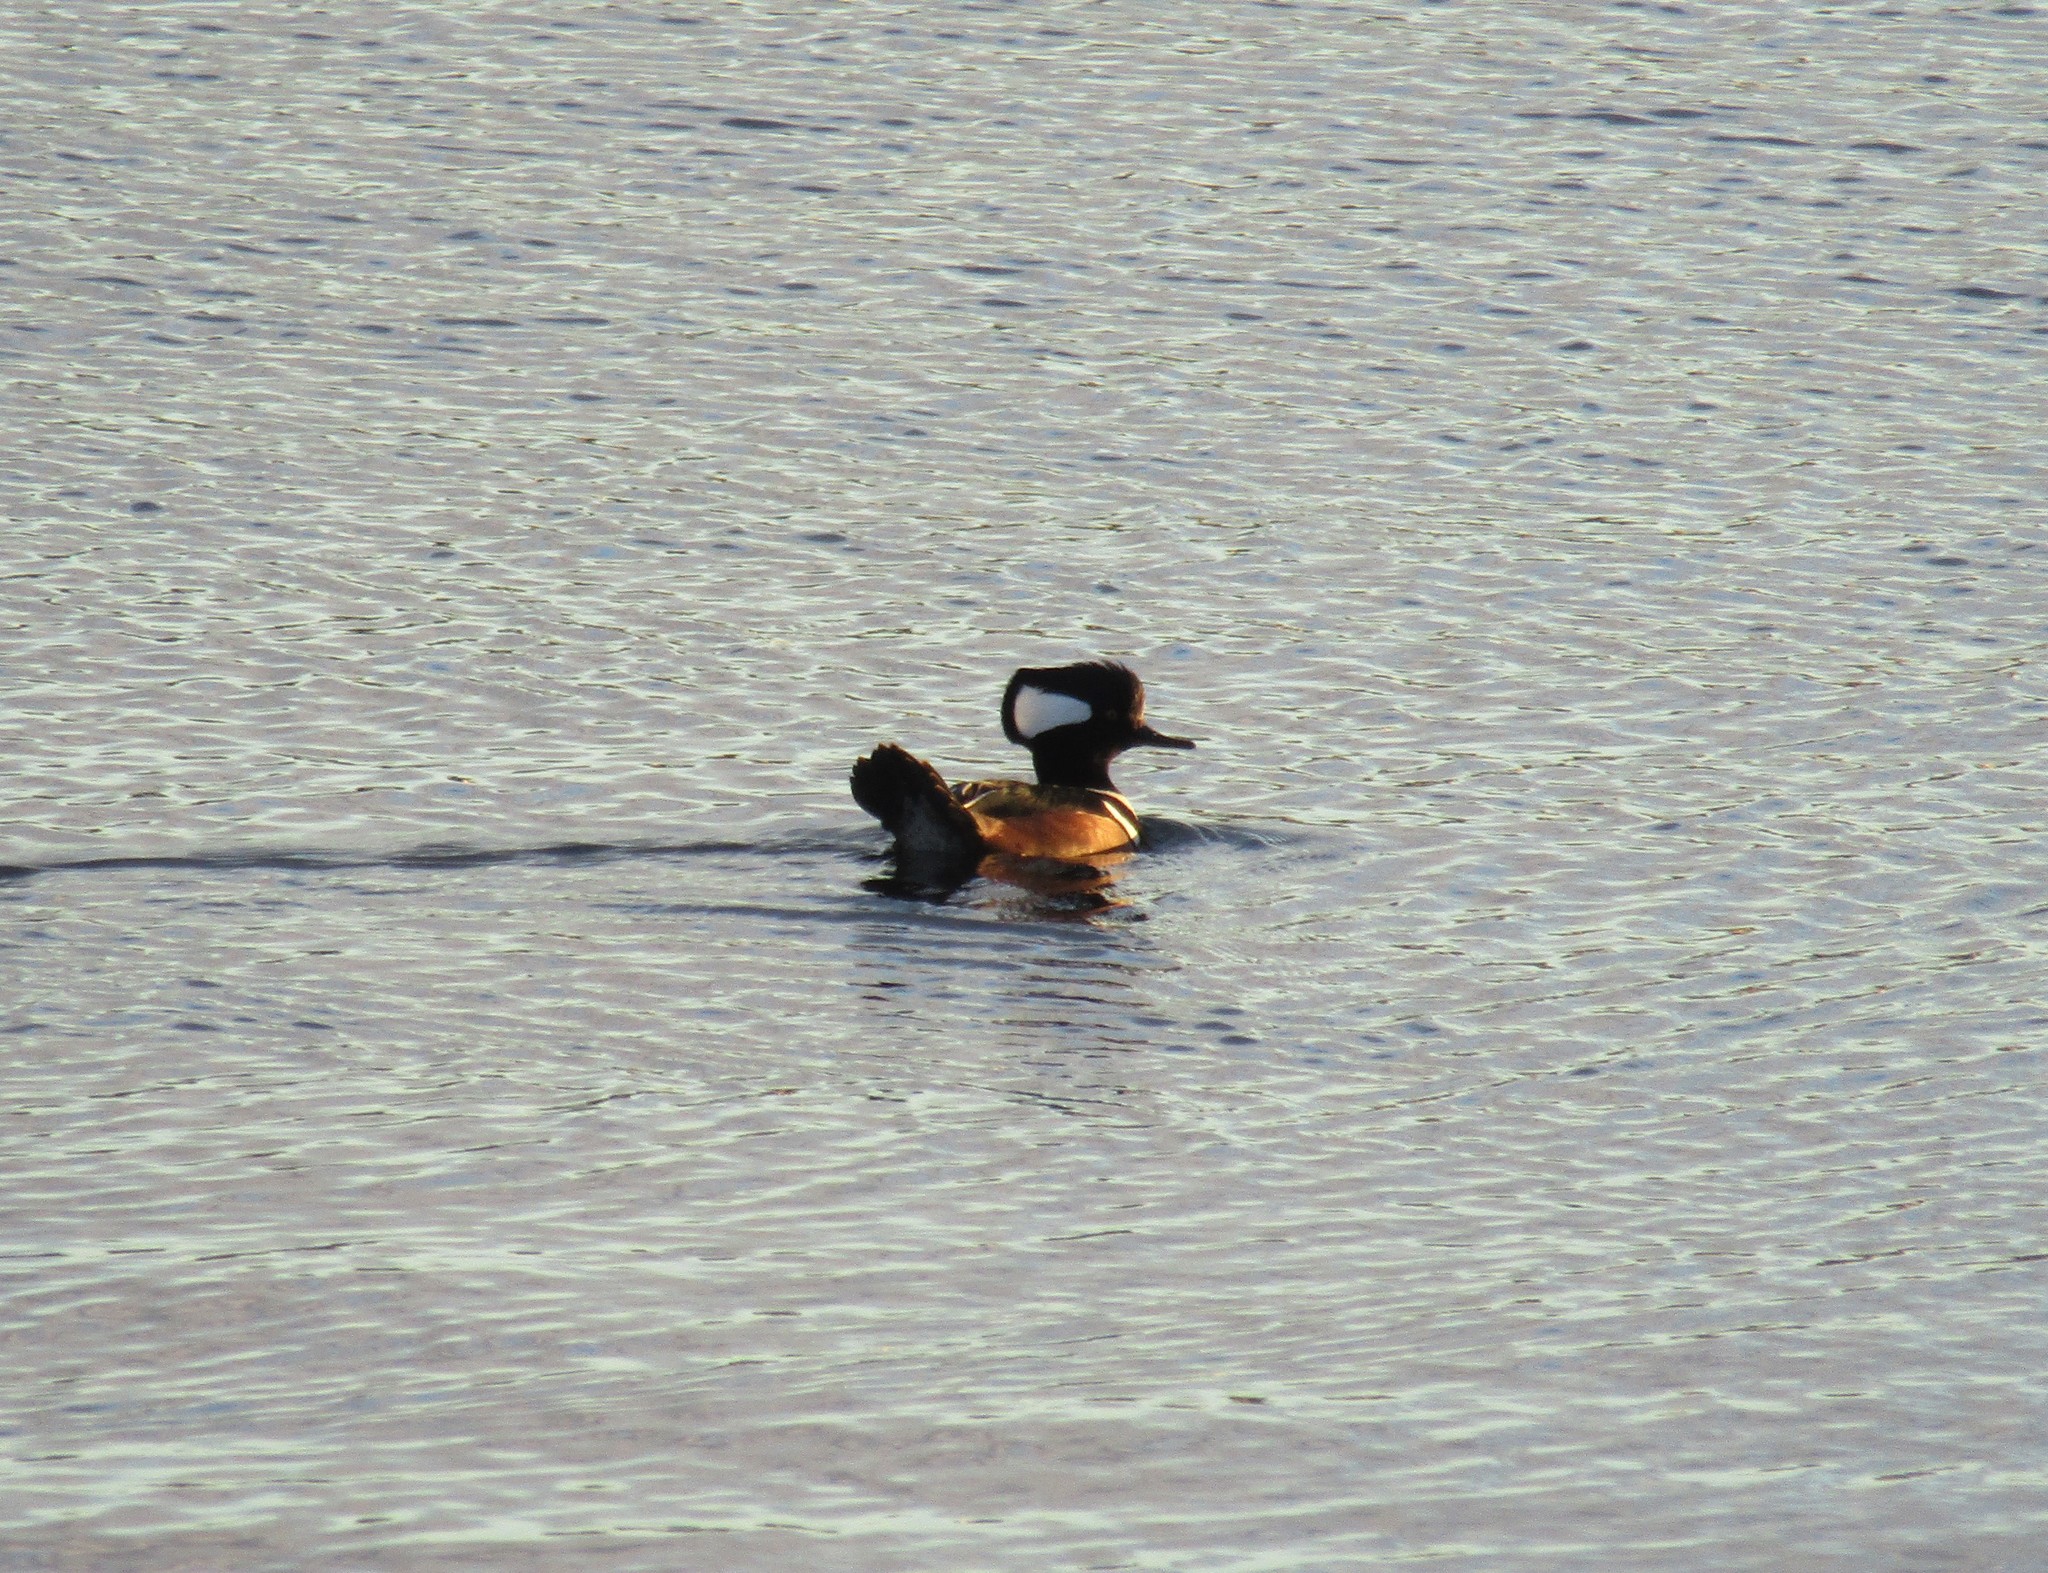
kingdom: Animalia
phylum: Chordata
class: Aves
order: Anseriformes
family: Anatidae
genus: Lophodytes
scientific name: Lophodytes cucullatus
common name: Hooded merganser
